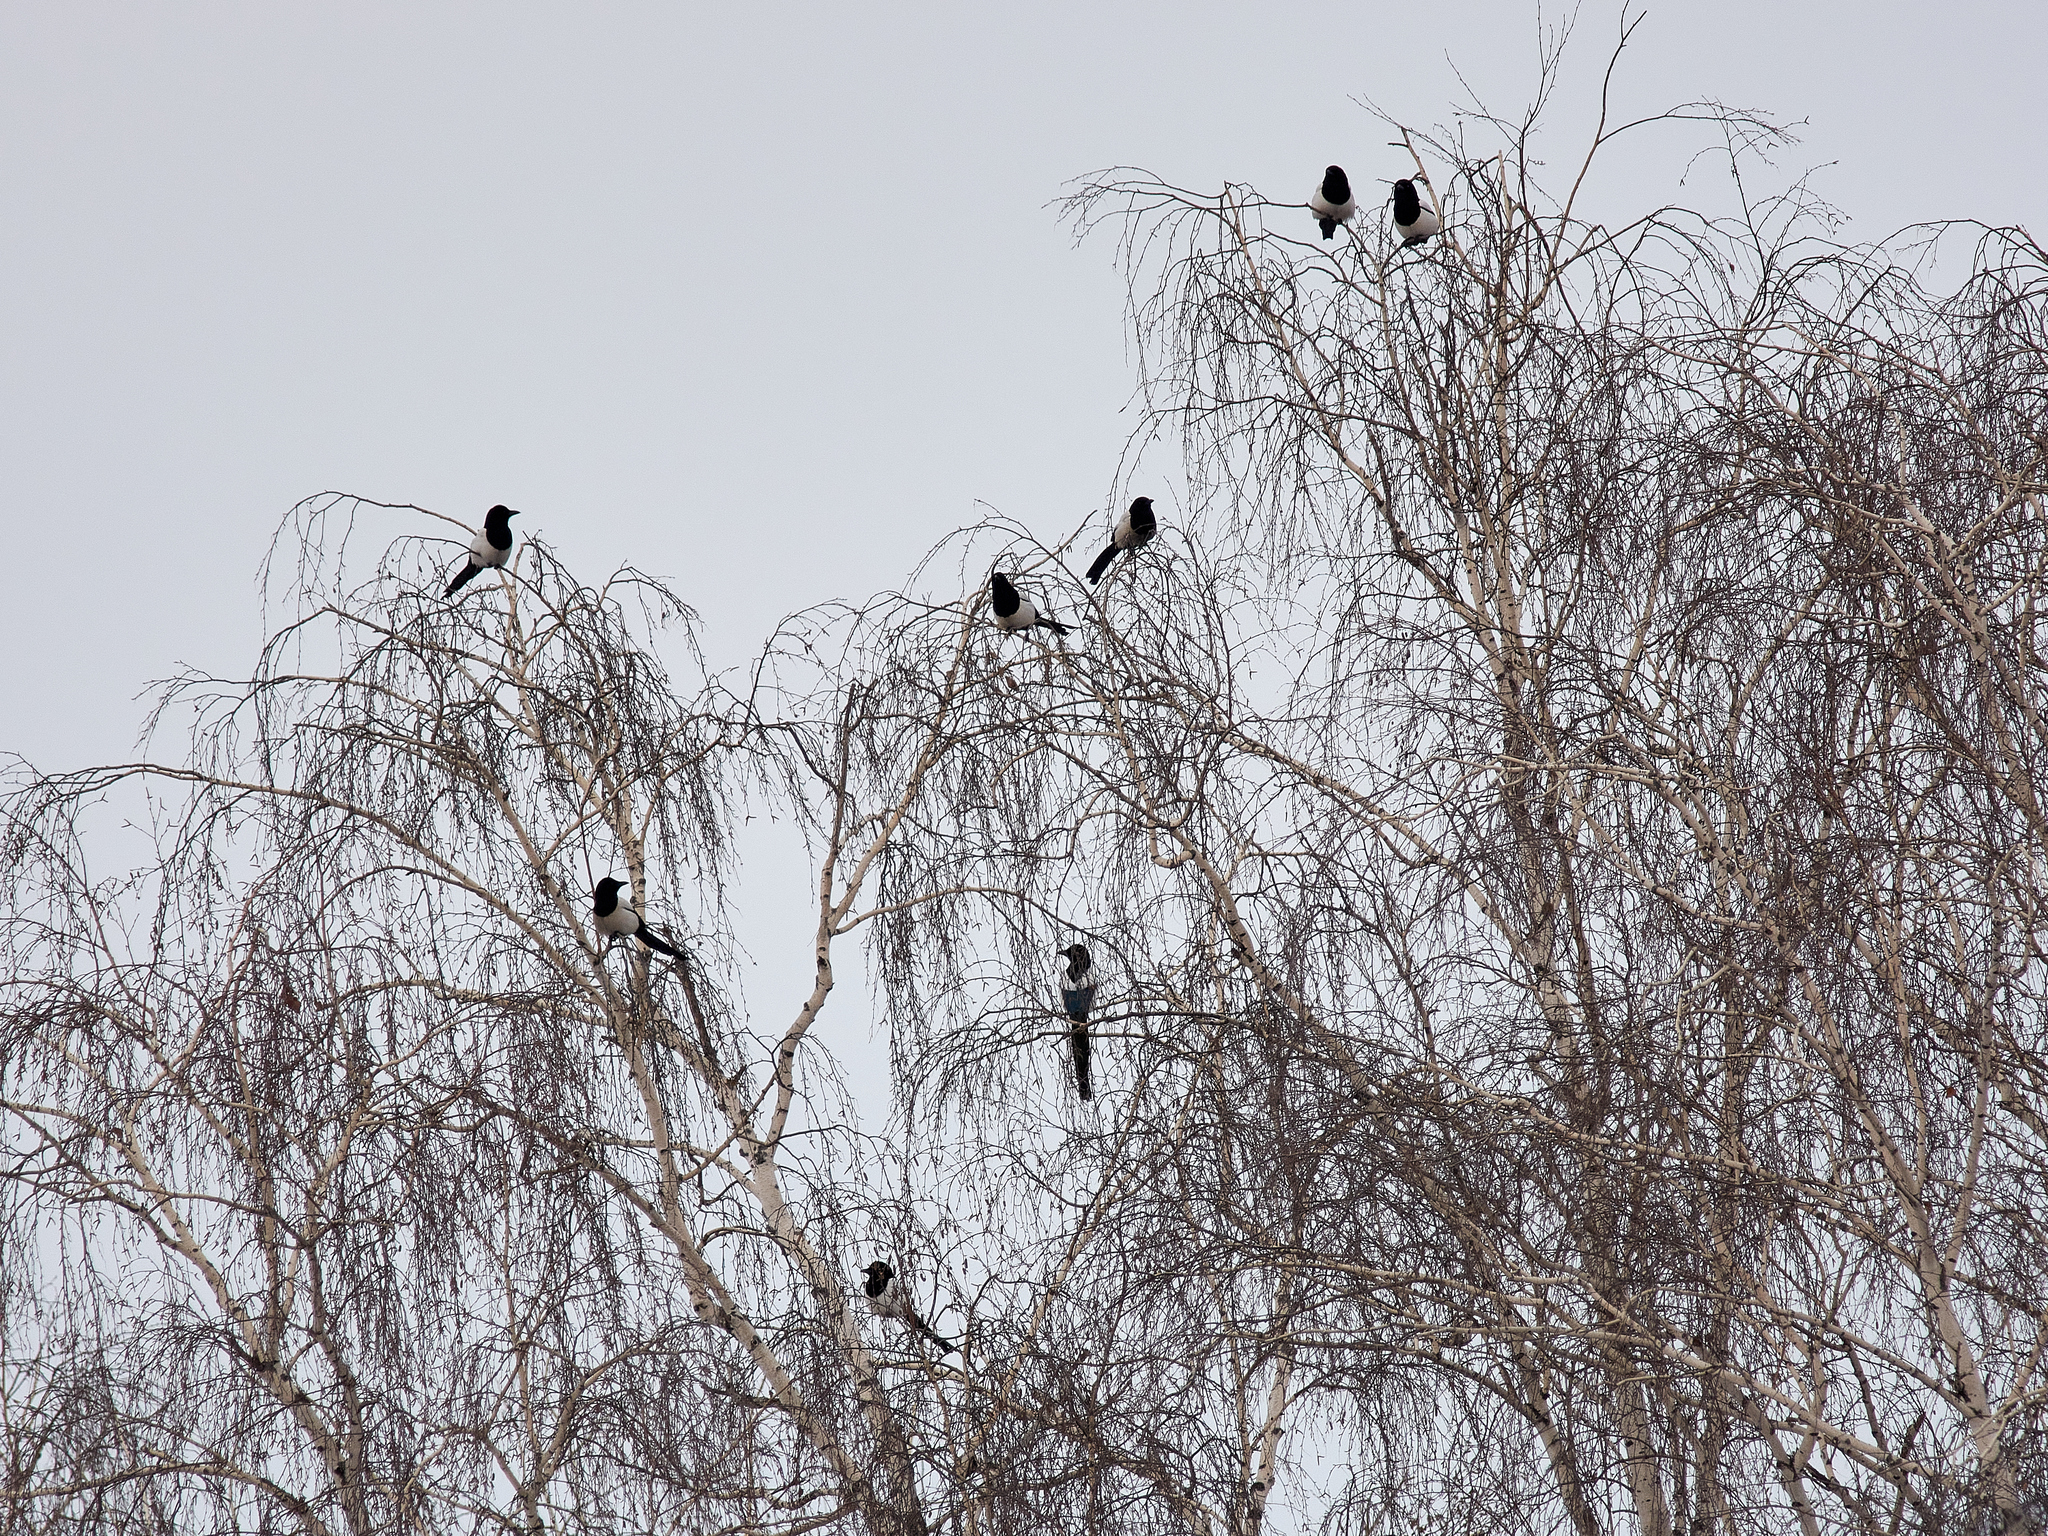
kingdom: Animalia
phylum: Chordata
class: Aves
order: Passeriformes
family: Corvidae
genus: Pica
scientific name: Pica pica
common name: Eurasian magpie
